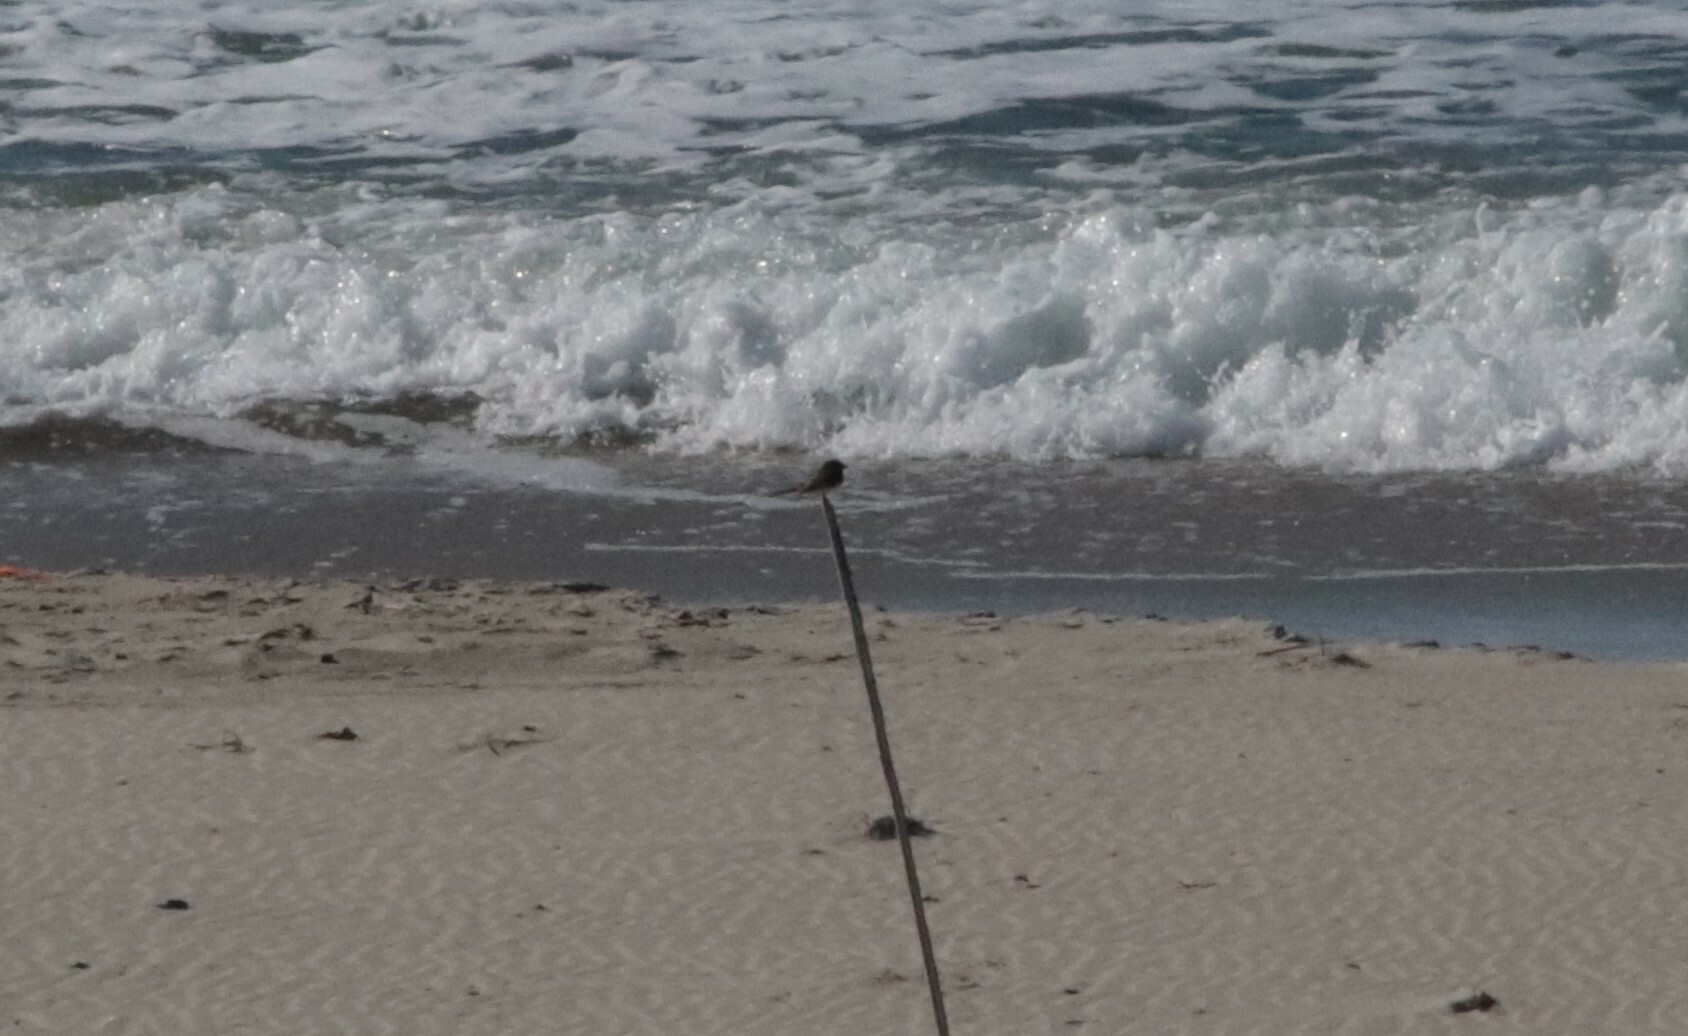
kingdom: Animalia
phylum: Chordata
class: Aves
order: Passeriformes
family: Tyrannidae
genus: Sayornis
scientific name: Sayornis nigricans
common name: Black phoebe
